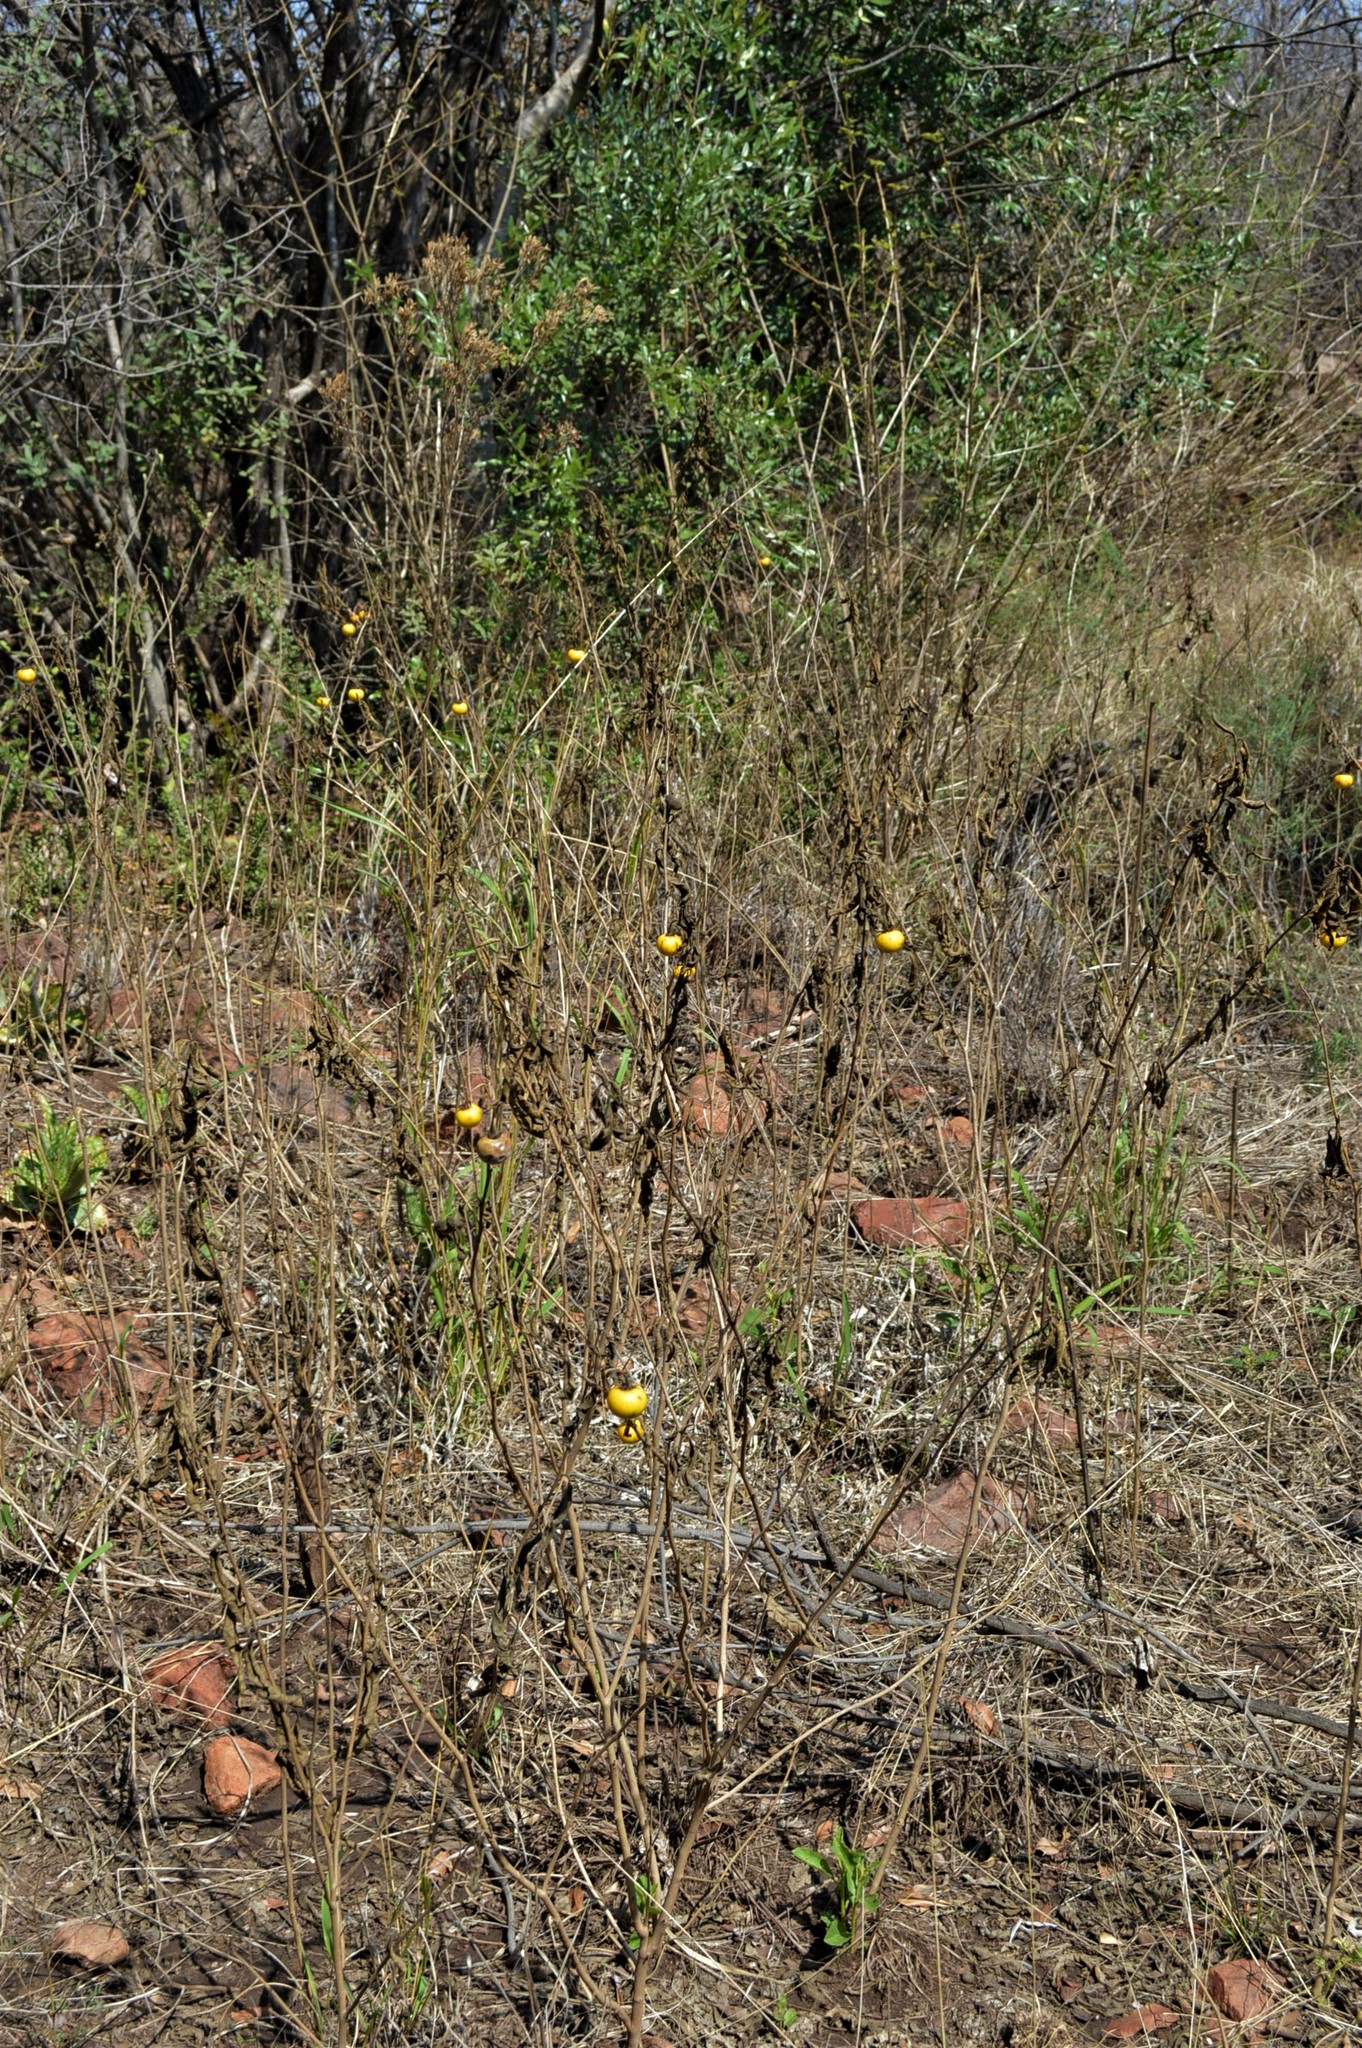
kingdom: Plantae
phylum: Tracheophyta
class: Magnoliopsida
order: Solanales
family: Solanaceae
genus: Solanum
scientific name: Solanum campylacanthum
